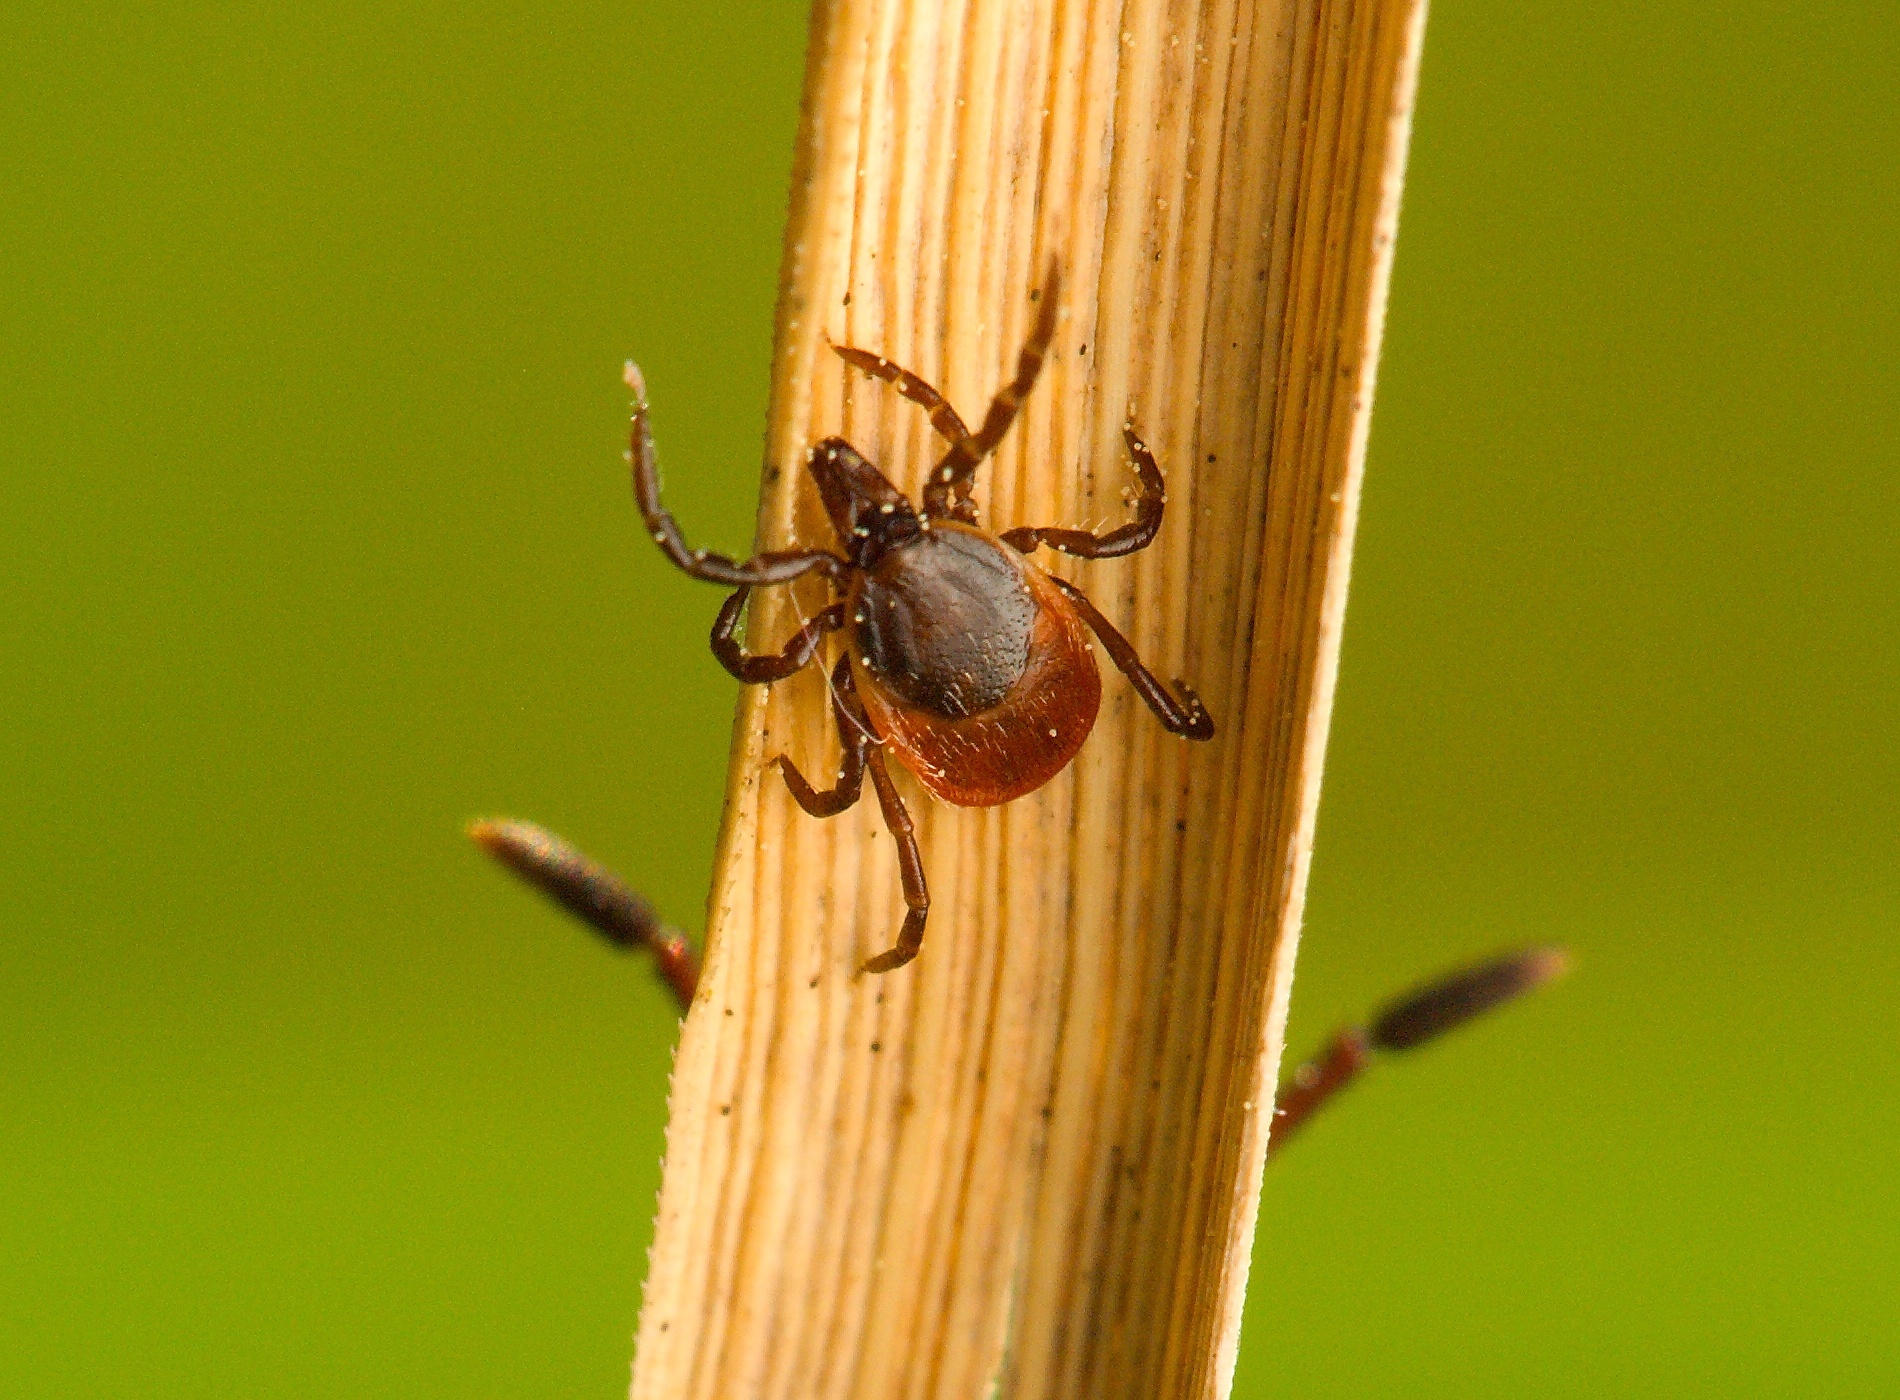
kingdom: Animalia
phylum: Arthropoda
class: Arachnida
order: Ixodida
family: Ixodidae
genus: Ixodes
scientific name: Ixodes ricinus
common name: Castor bean tick
